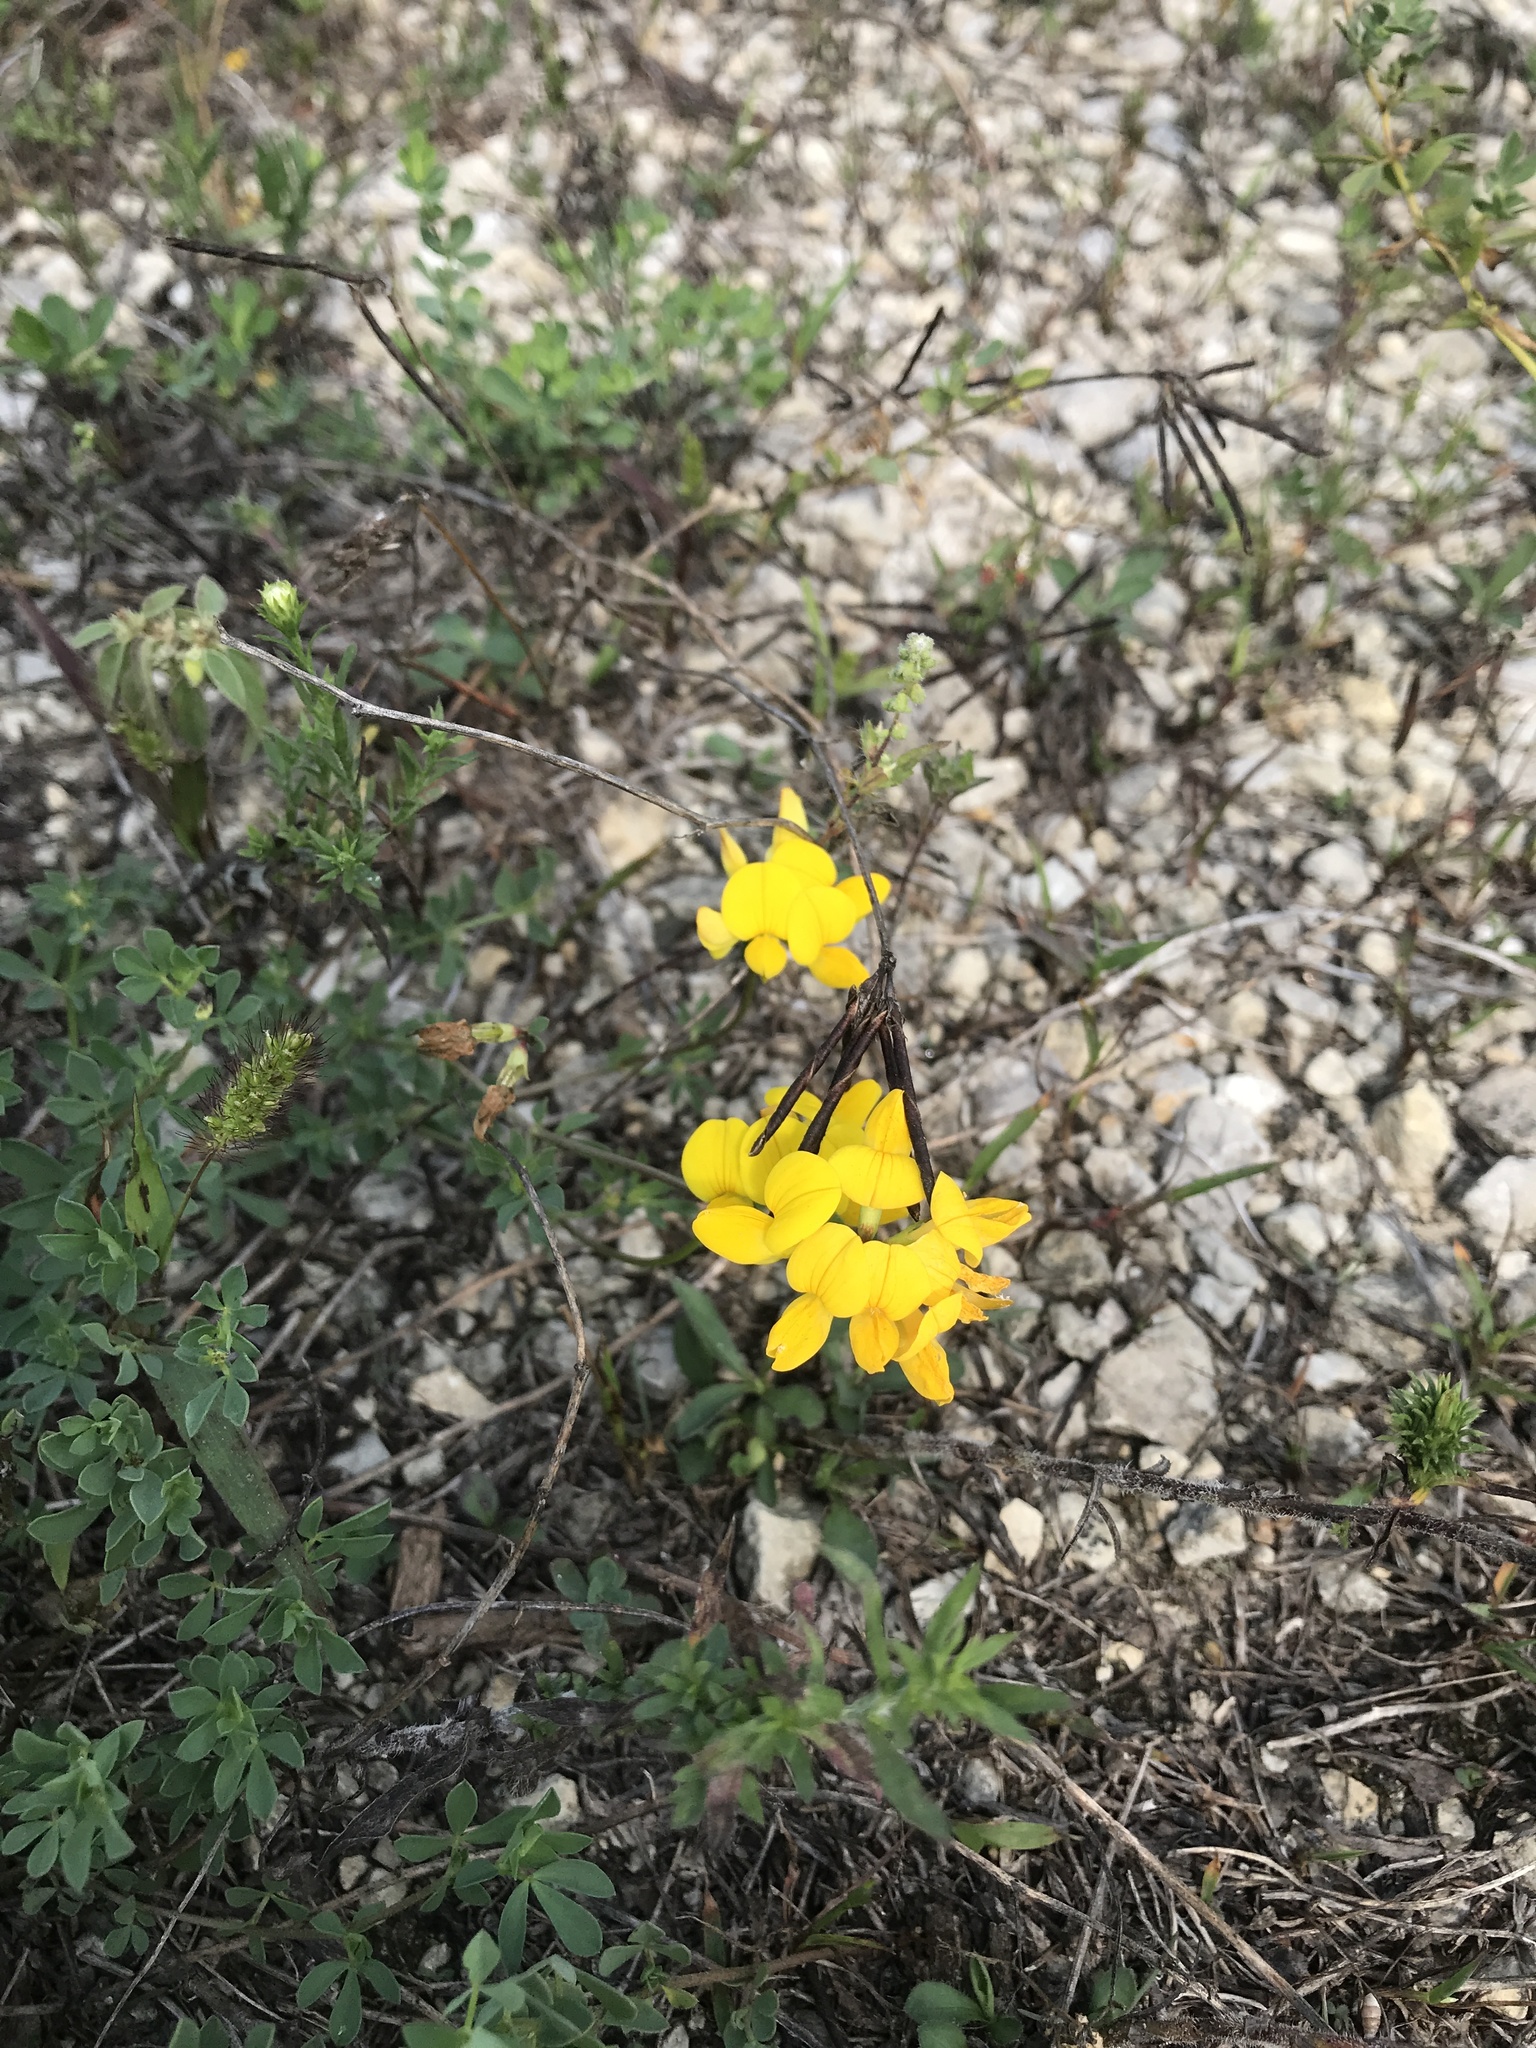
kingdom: Plantae
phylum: Tracheophyta
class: Magnoliopsida
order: Fabales
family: Fabaceae
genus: Lotus
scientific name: Lotus corniculatus
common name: Common bird's-foot-trefoil
